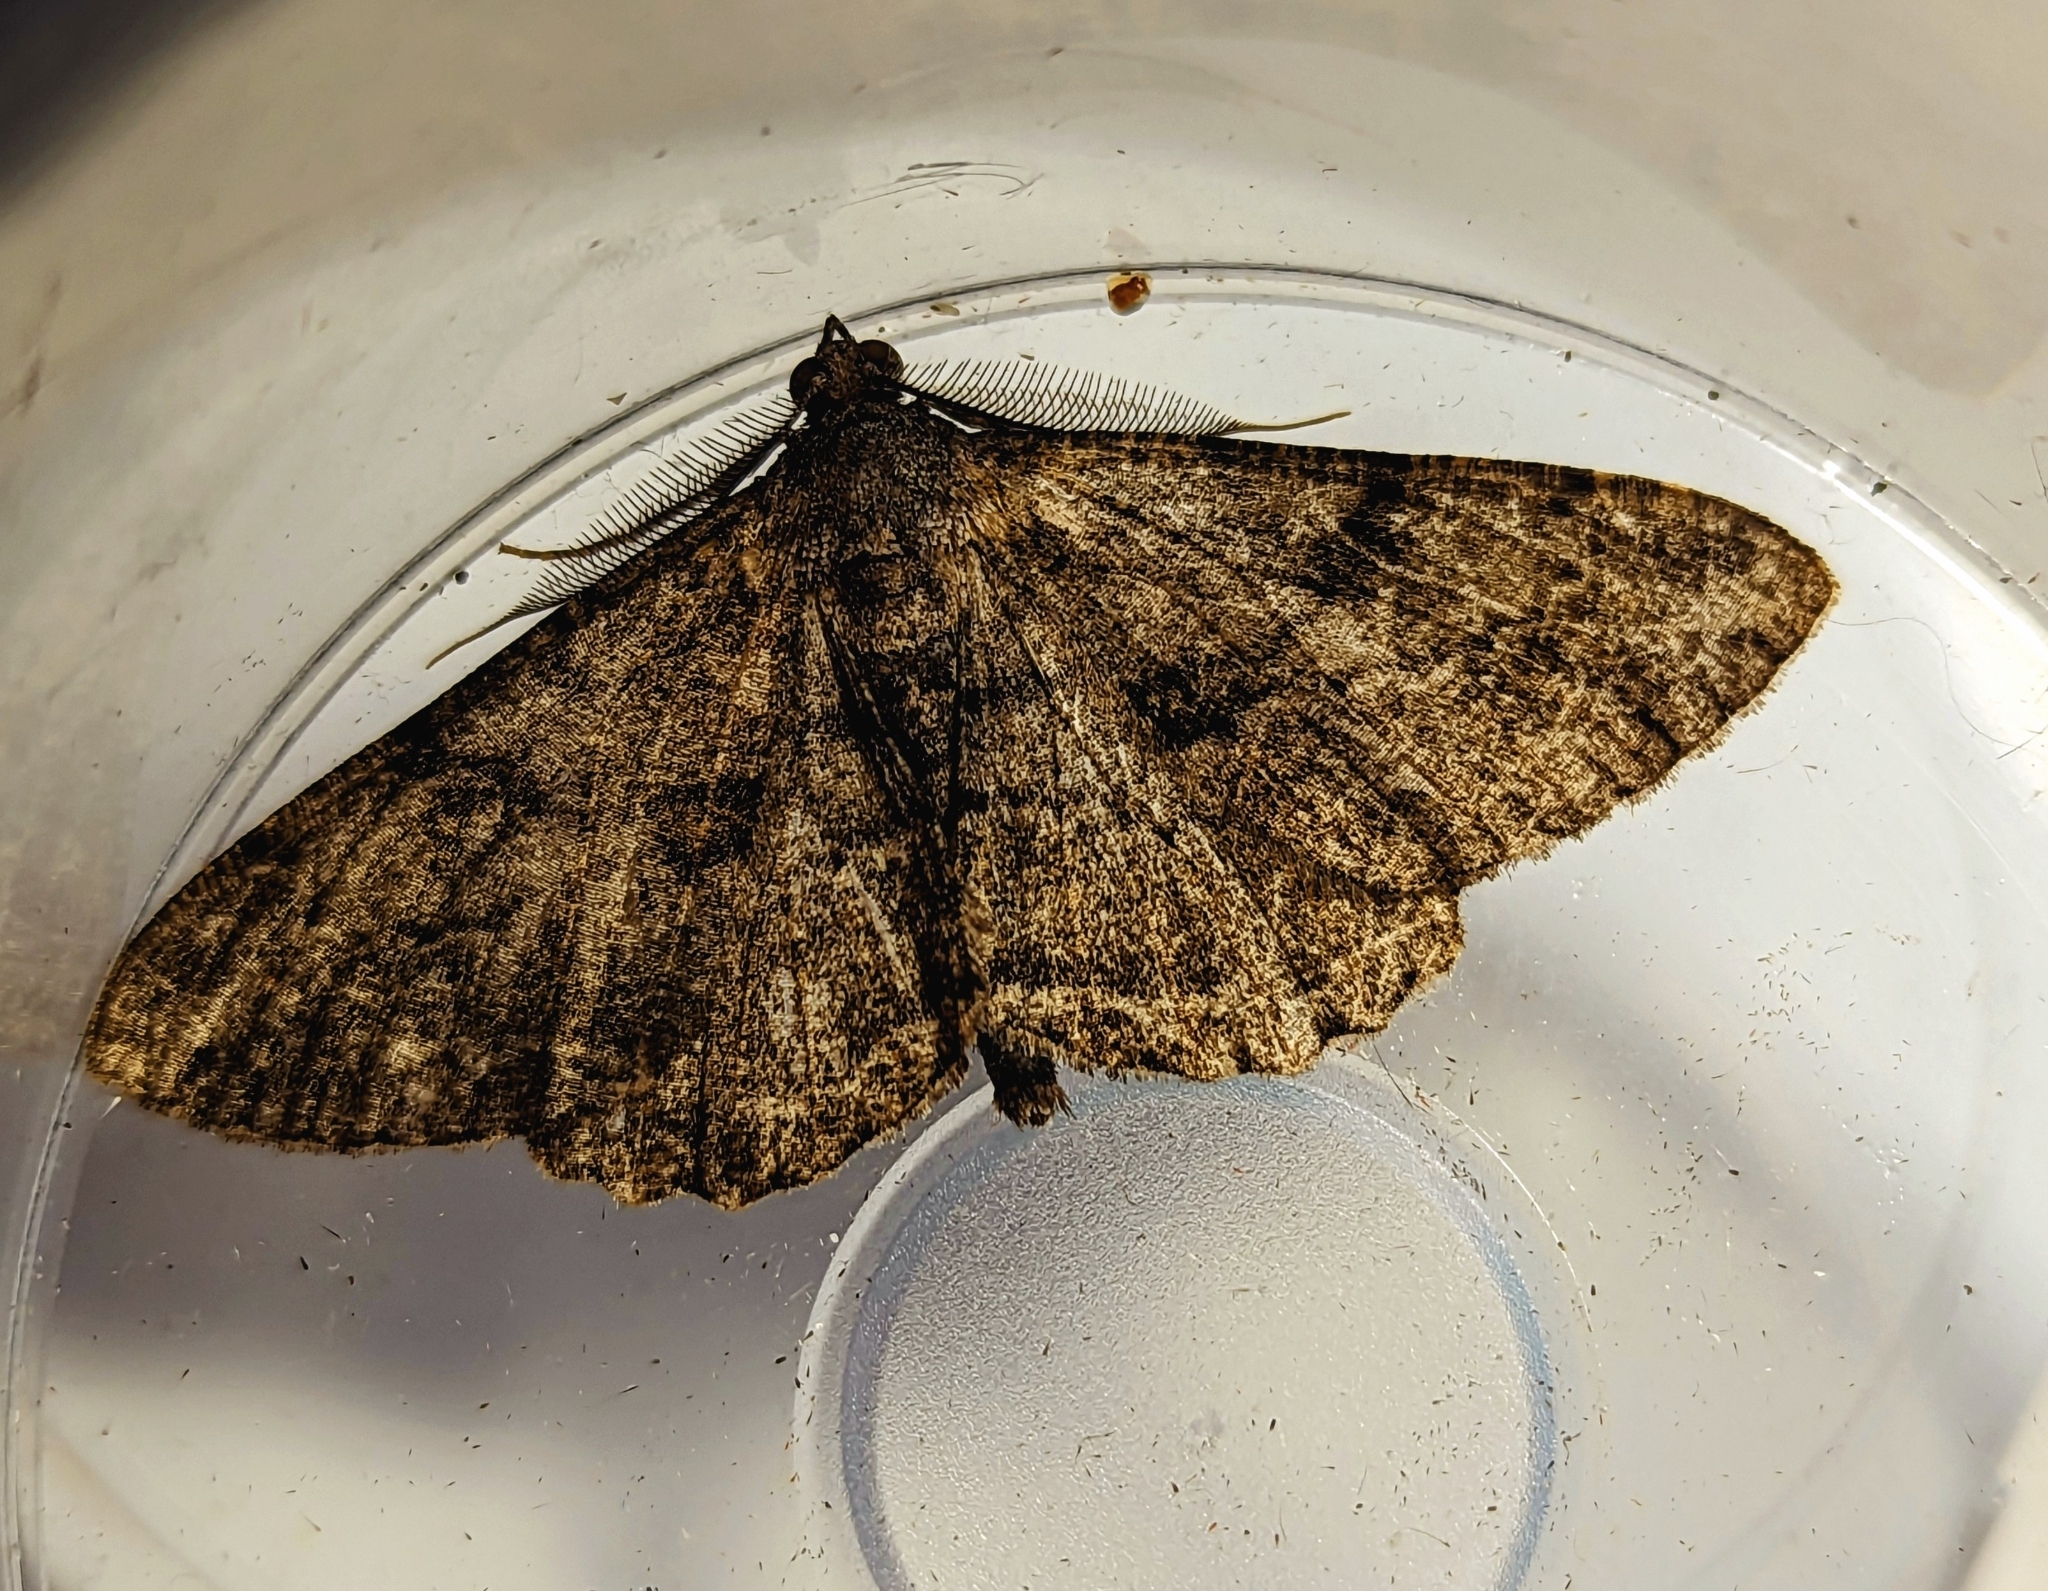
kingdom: Animalia
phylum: Arthropoda
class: Insecta
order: Lepidoptera
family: Geometridae
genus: Peribatodes
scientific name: Peribatodes rhomboidaria
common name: Willow beauty
